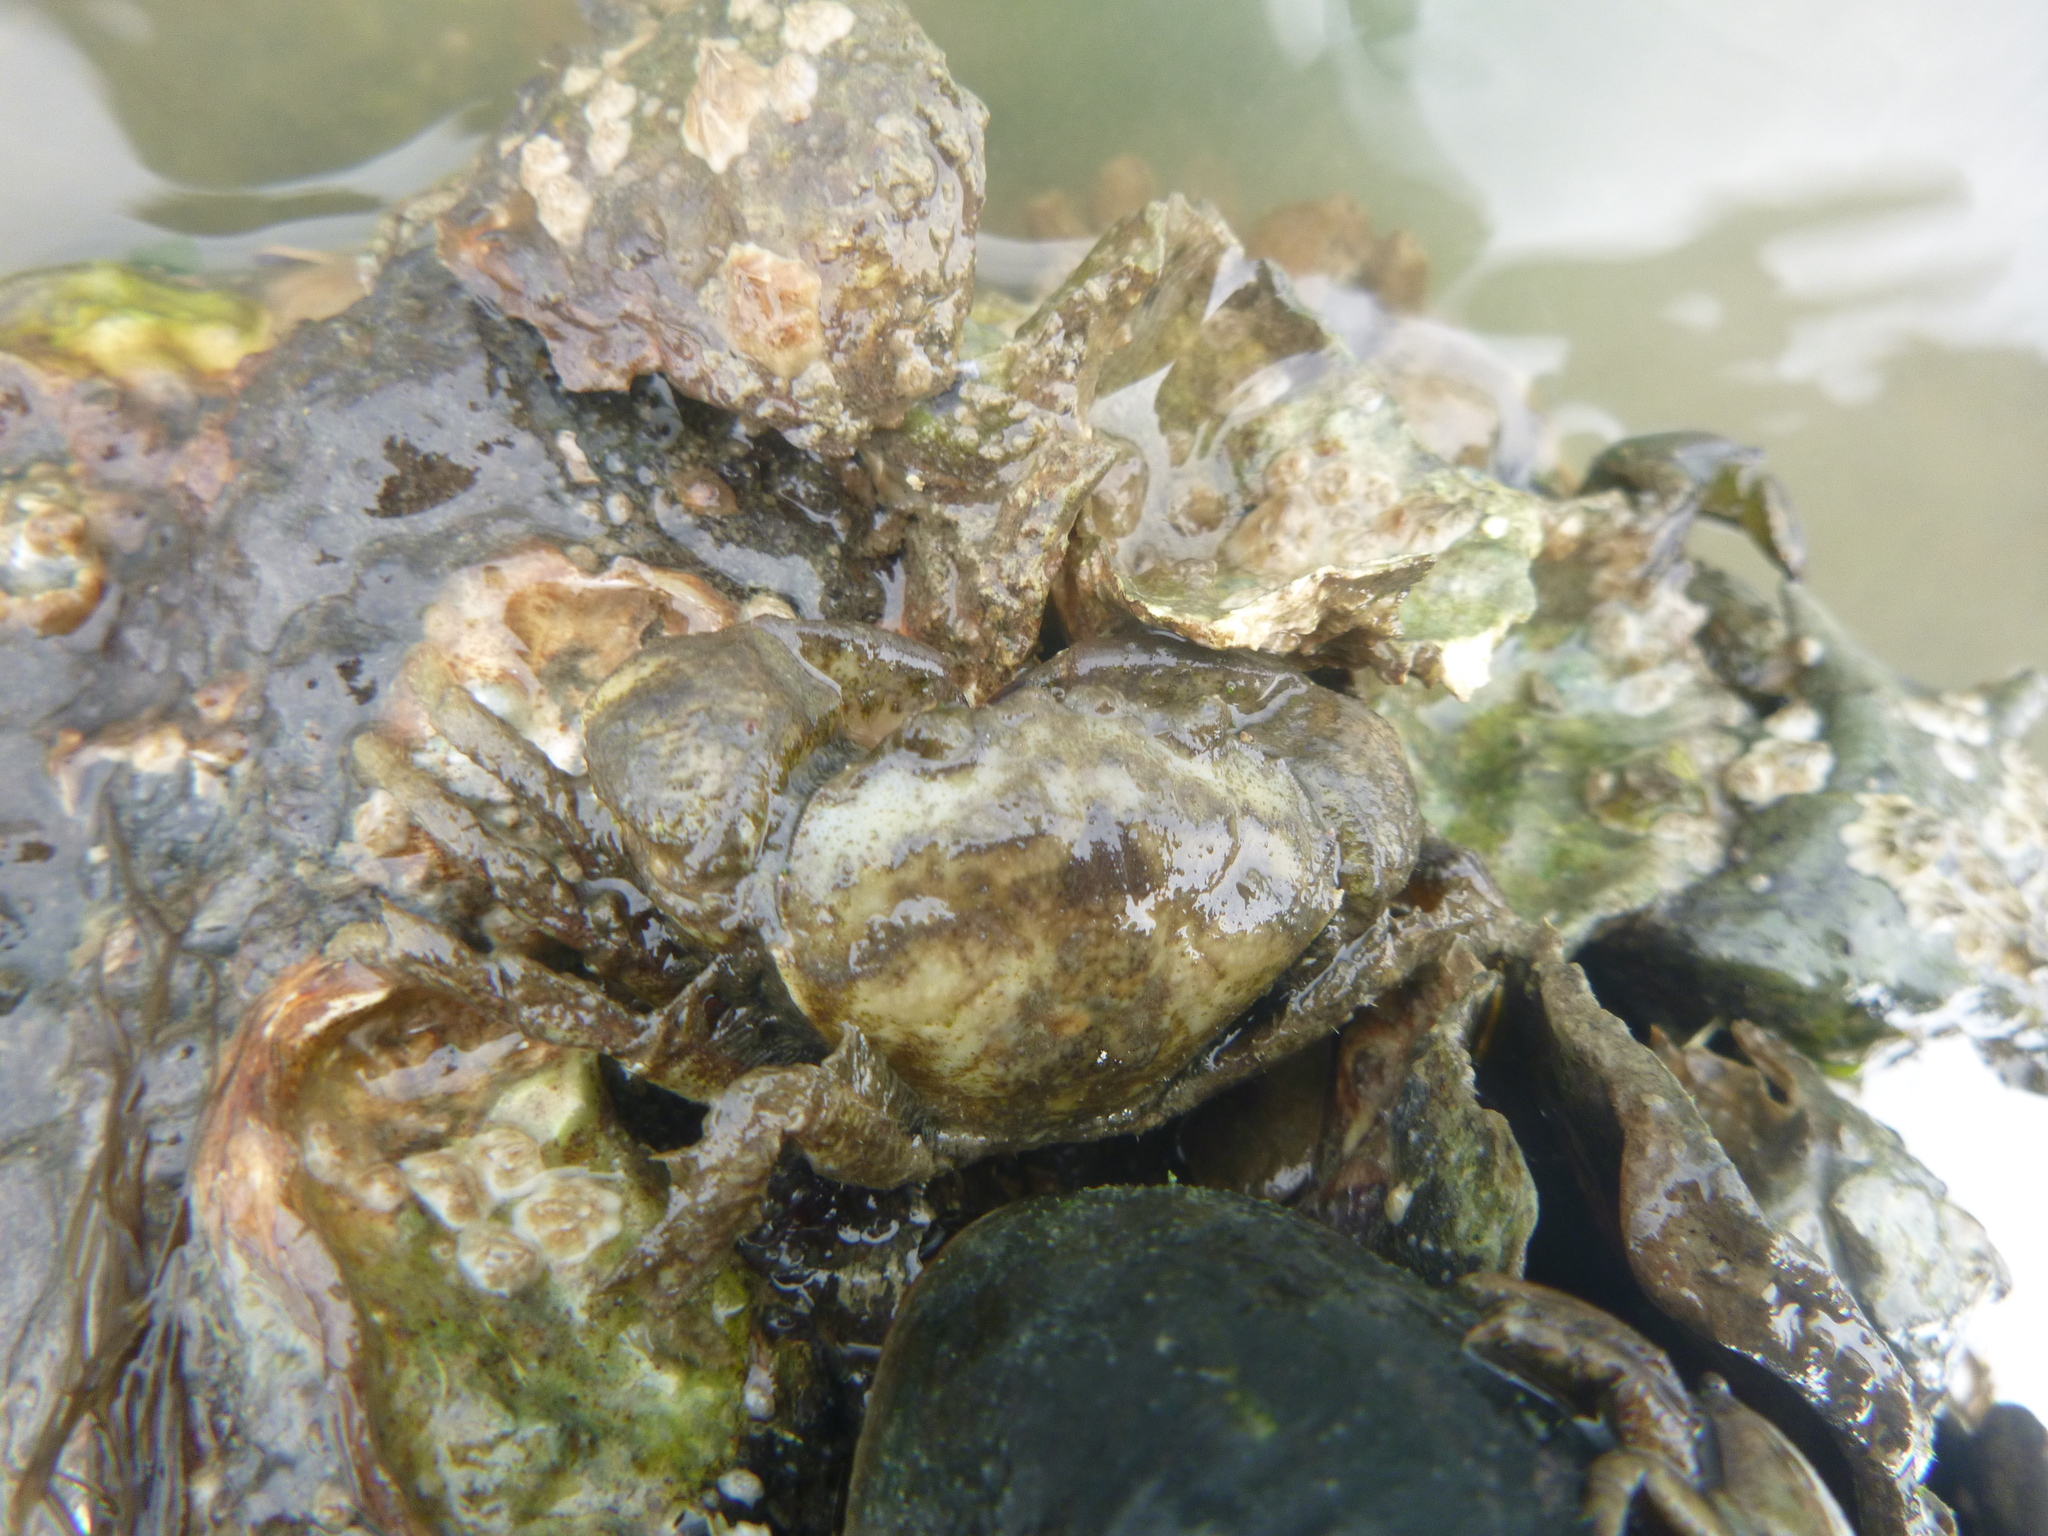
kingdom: Animalia
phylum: Arthropoda
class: Malacostraca
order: Decapoda
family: Pilumnidae
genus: Pilumnopeus
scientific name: Pilumnopeus serratifrons
